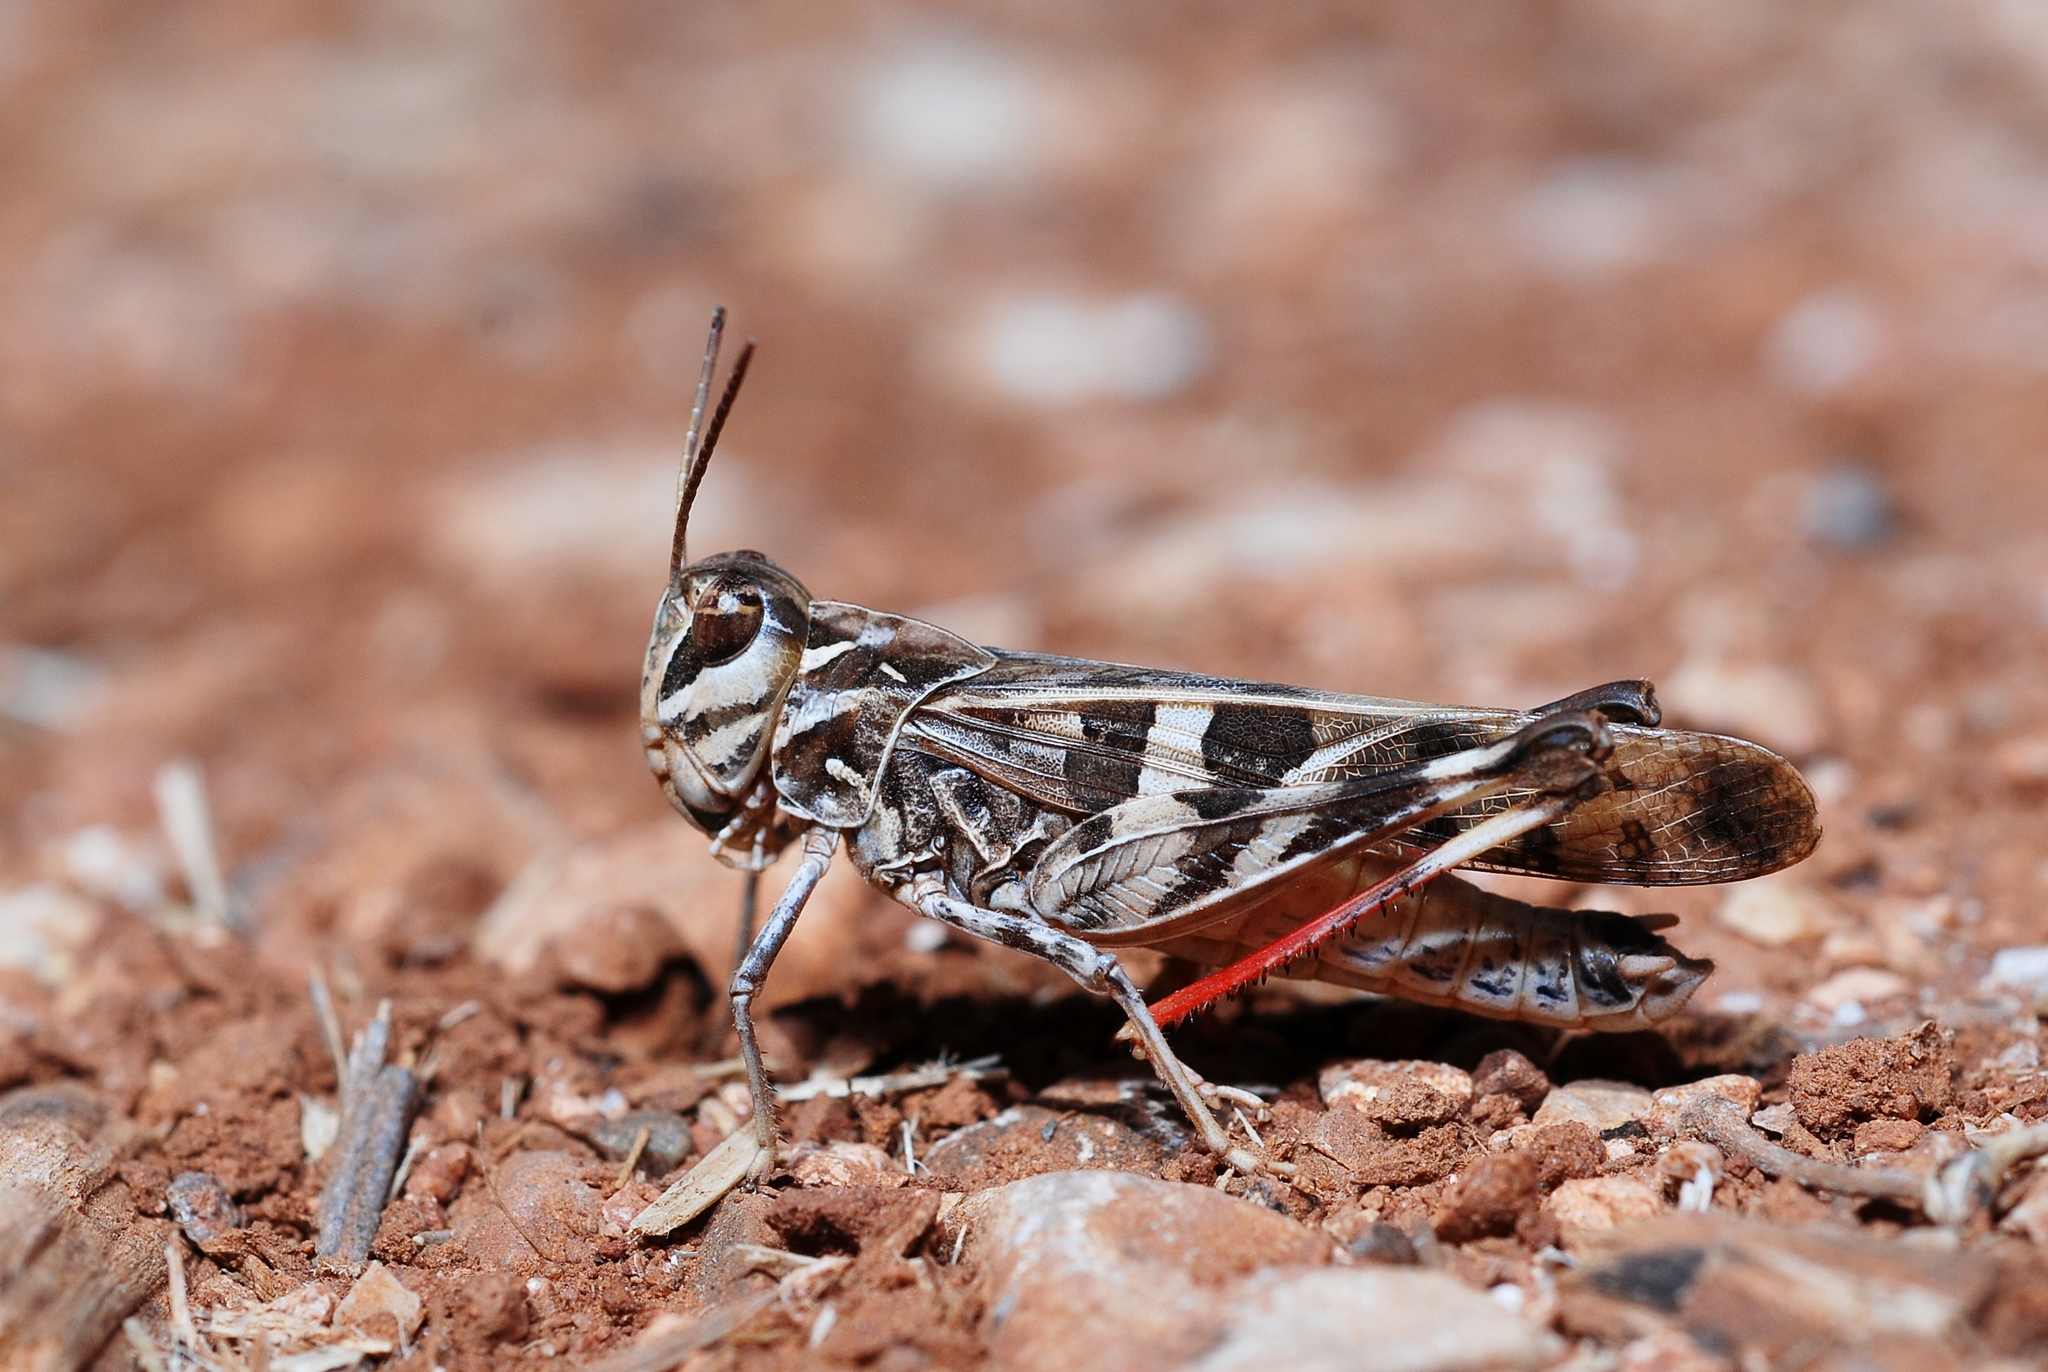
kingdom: Animalia
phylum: Arthropoda
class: Insecta
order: Orthoptera
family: Acrididae
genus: Oedaleus
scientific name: Oedaleus decorus
